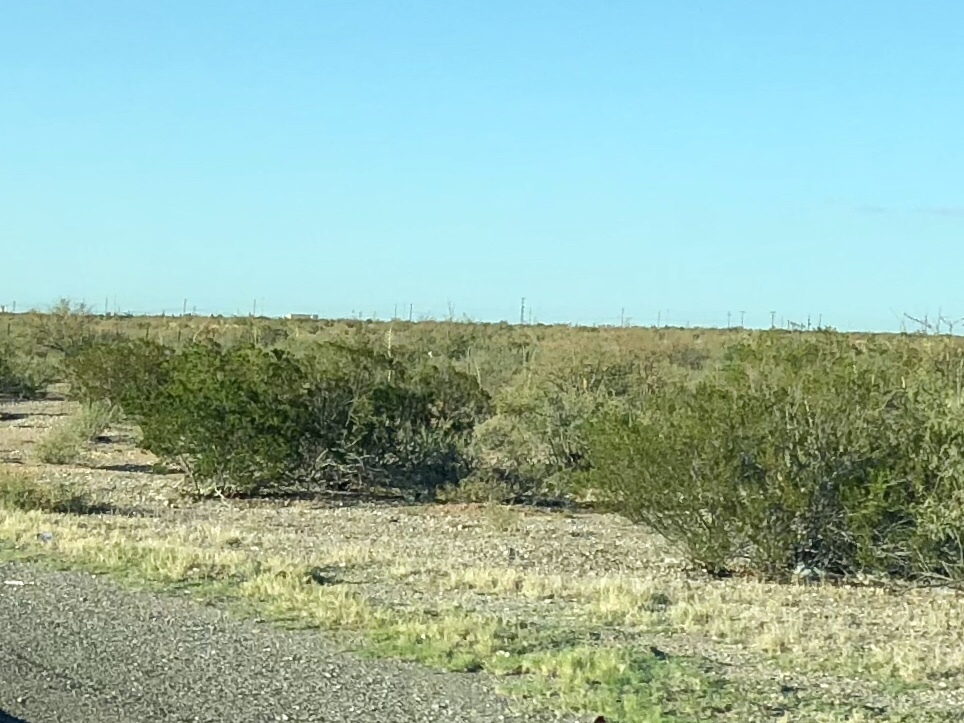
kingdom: Plantae
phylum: Tracheophyta
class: Magnoliopsida
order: Zygophyllales
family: Zygophyllaceae
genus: Larrea
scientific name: Larrea tridentata
